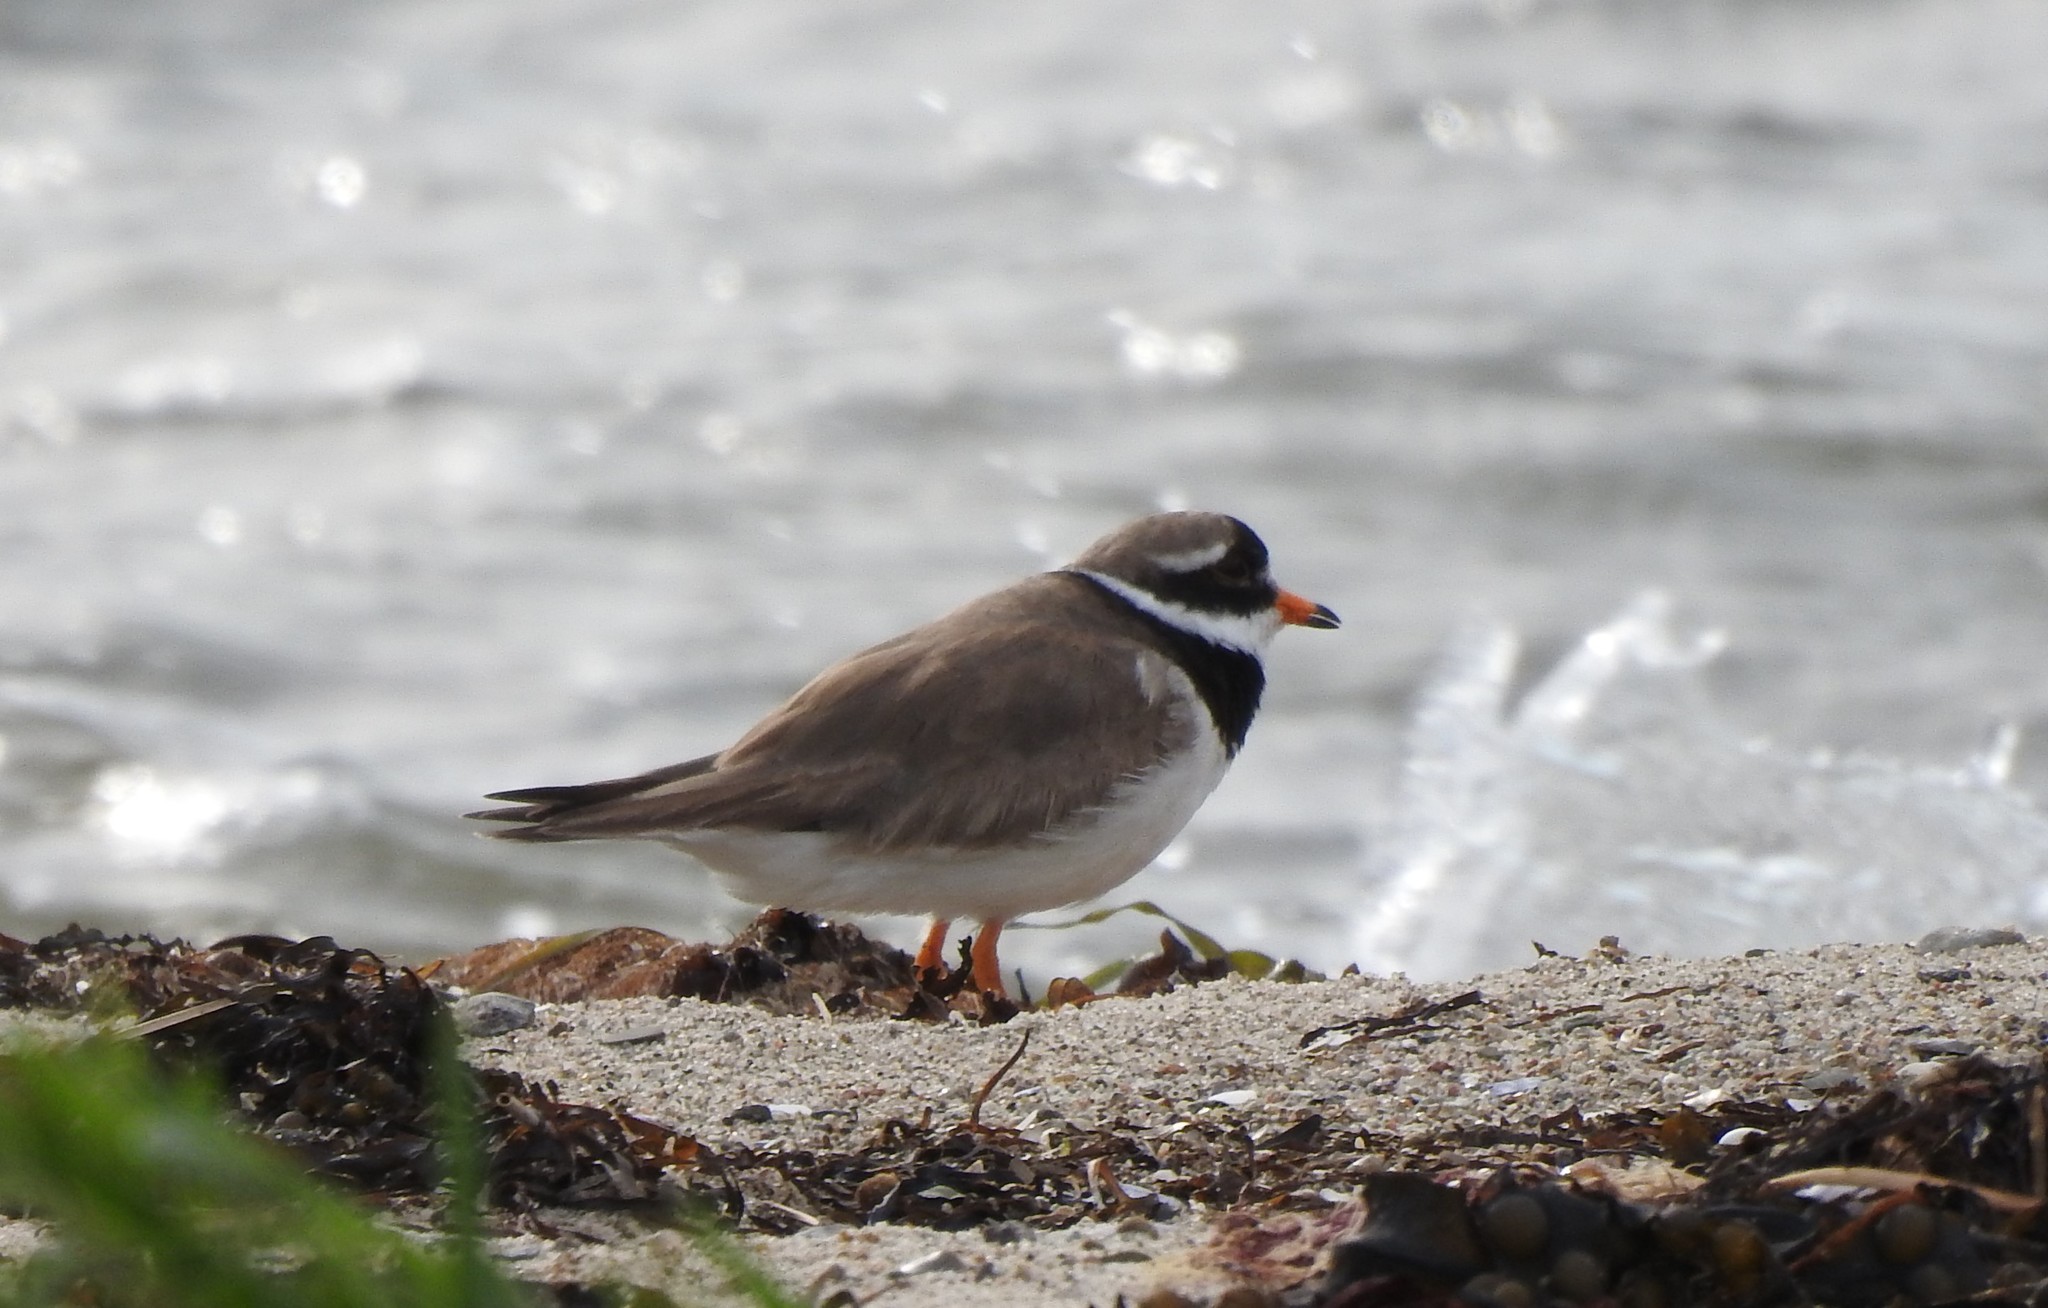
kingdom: Animalia
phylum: Chordata
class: Aves
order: Charadriiformes
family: Charadriidae
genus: Charadrius
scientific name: Charadrius hiaticula
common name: Common ringed plover
